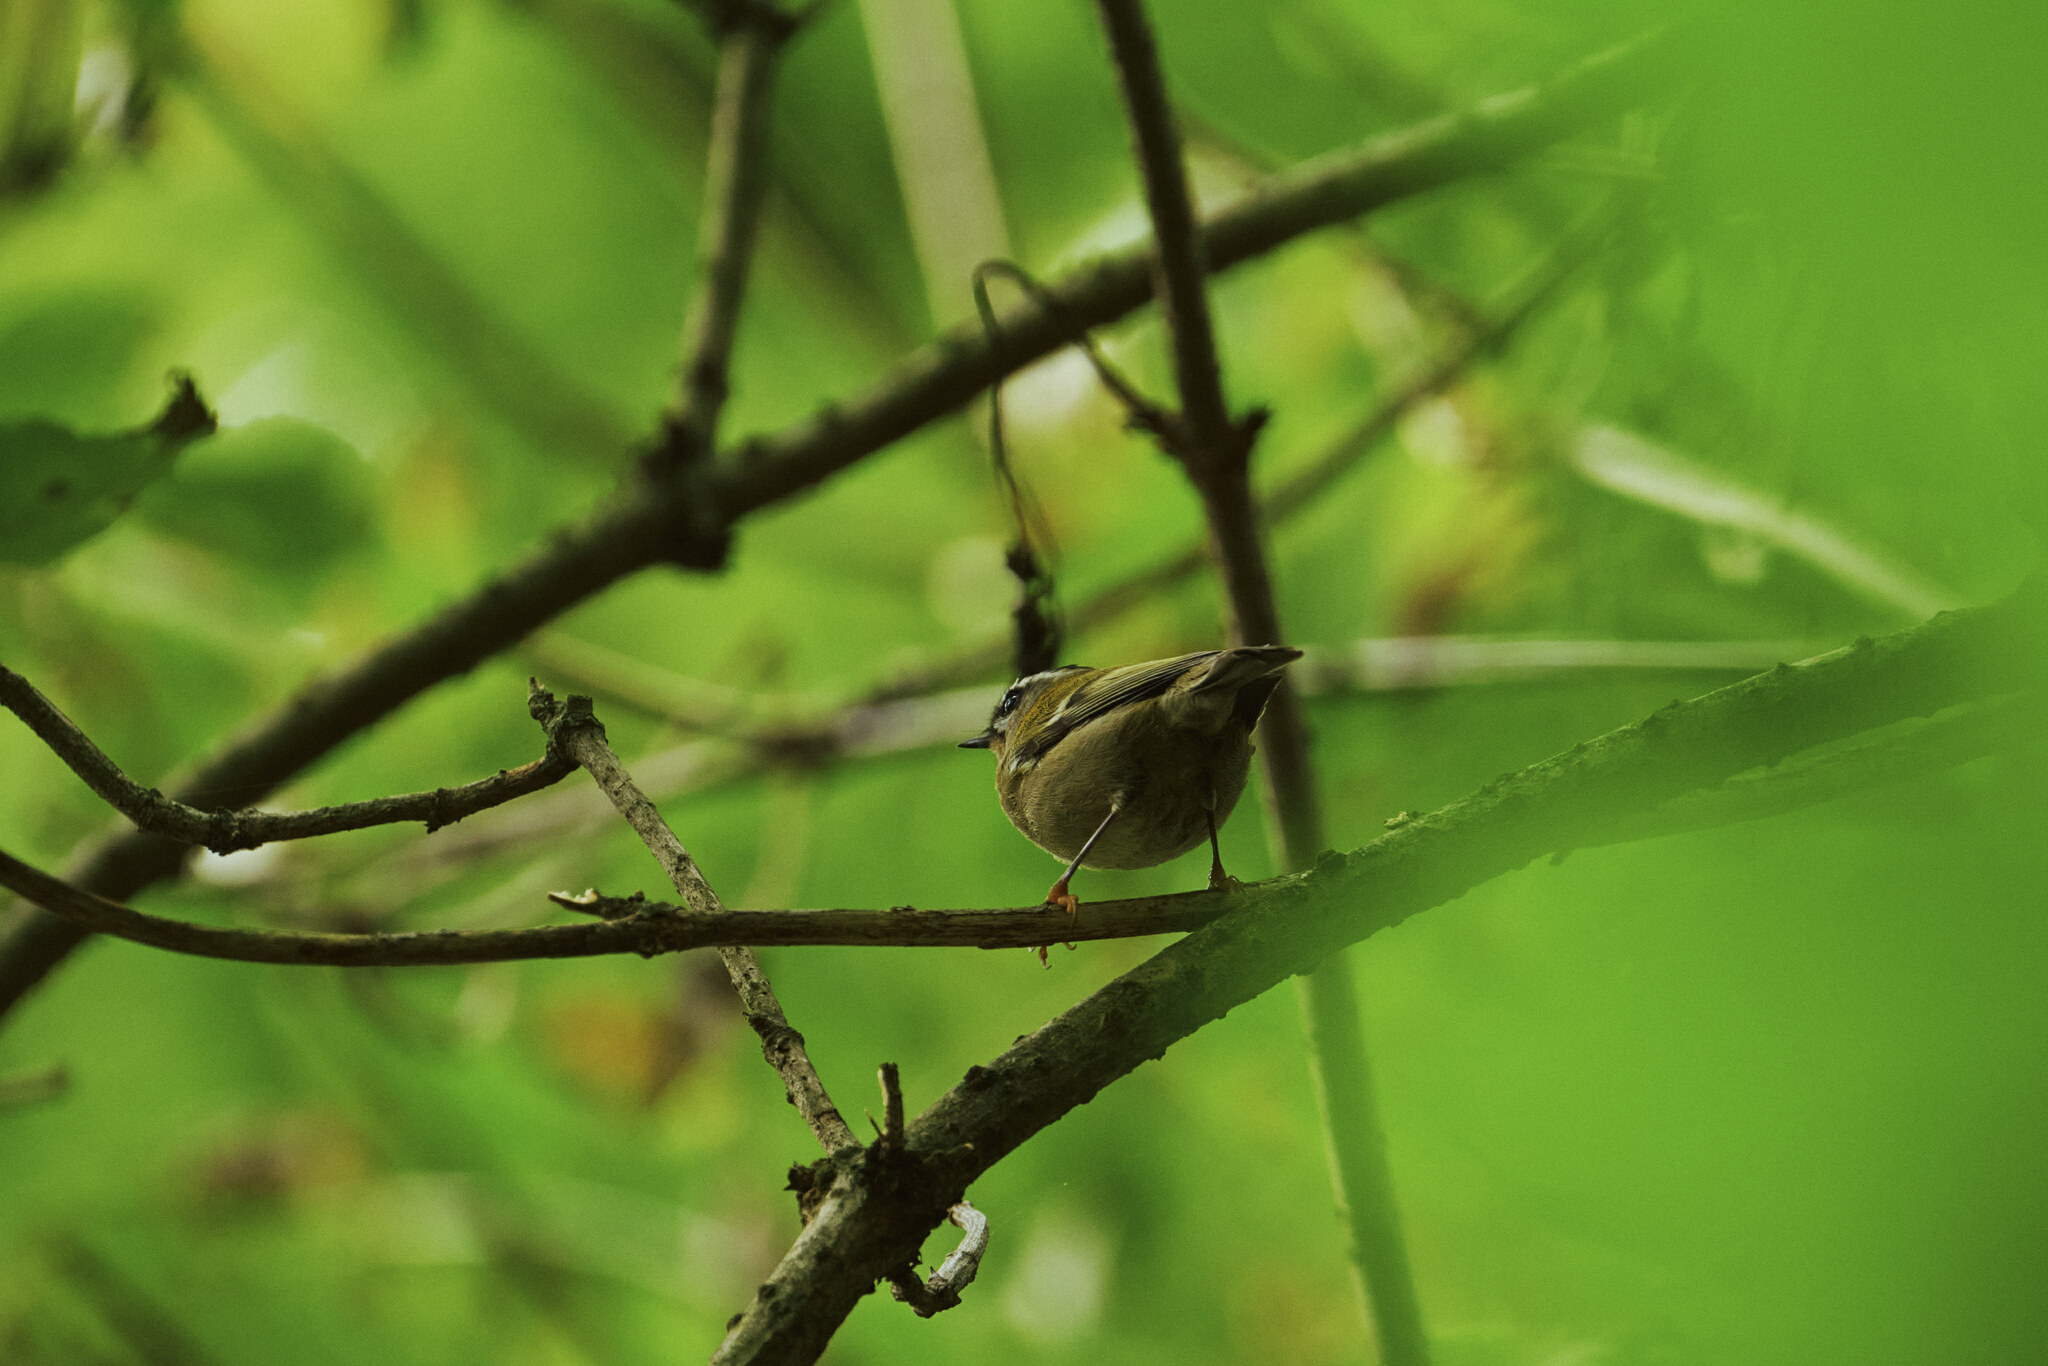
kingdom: Animalia
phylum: Chordata
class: Aves
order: Passeriformes
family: Regulidae
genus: Regulus
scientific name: Regulus ignicapilla
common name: Firecrest
